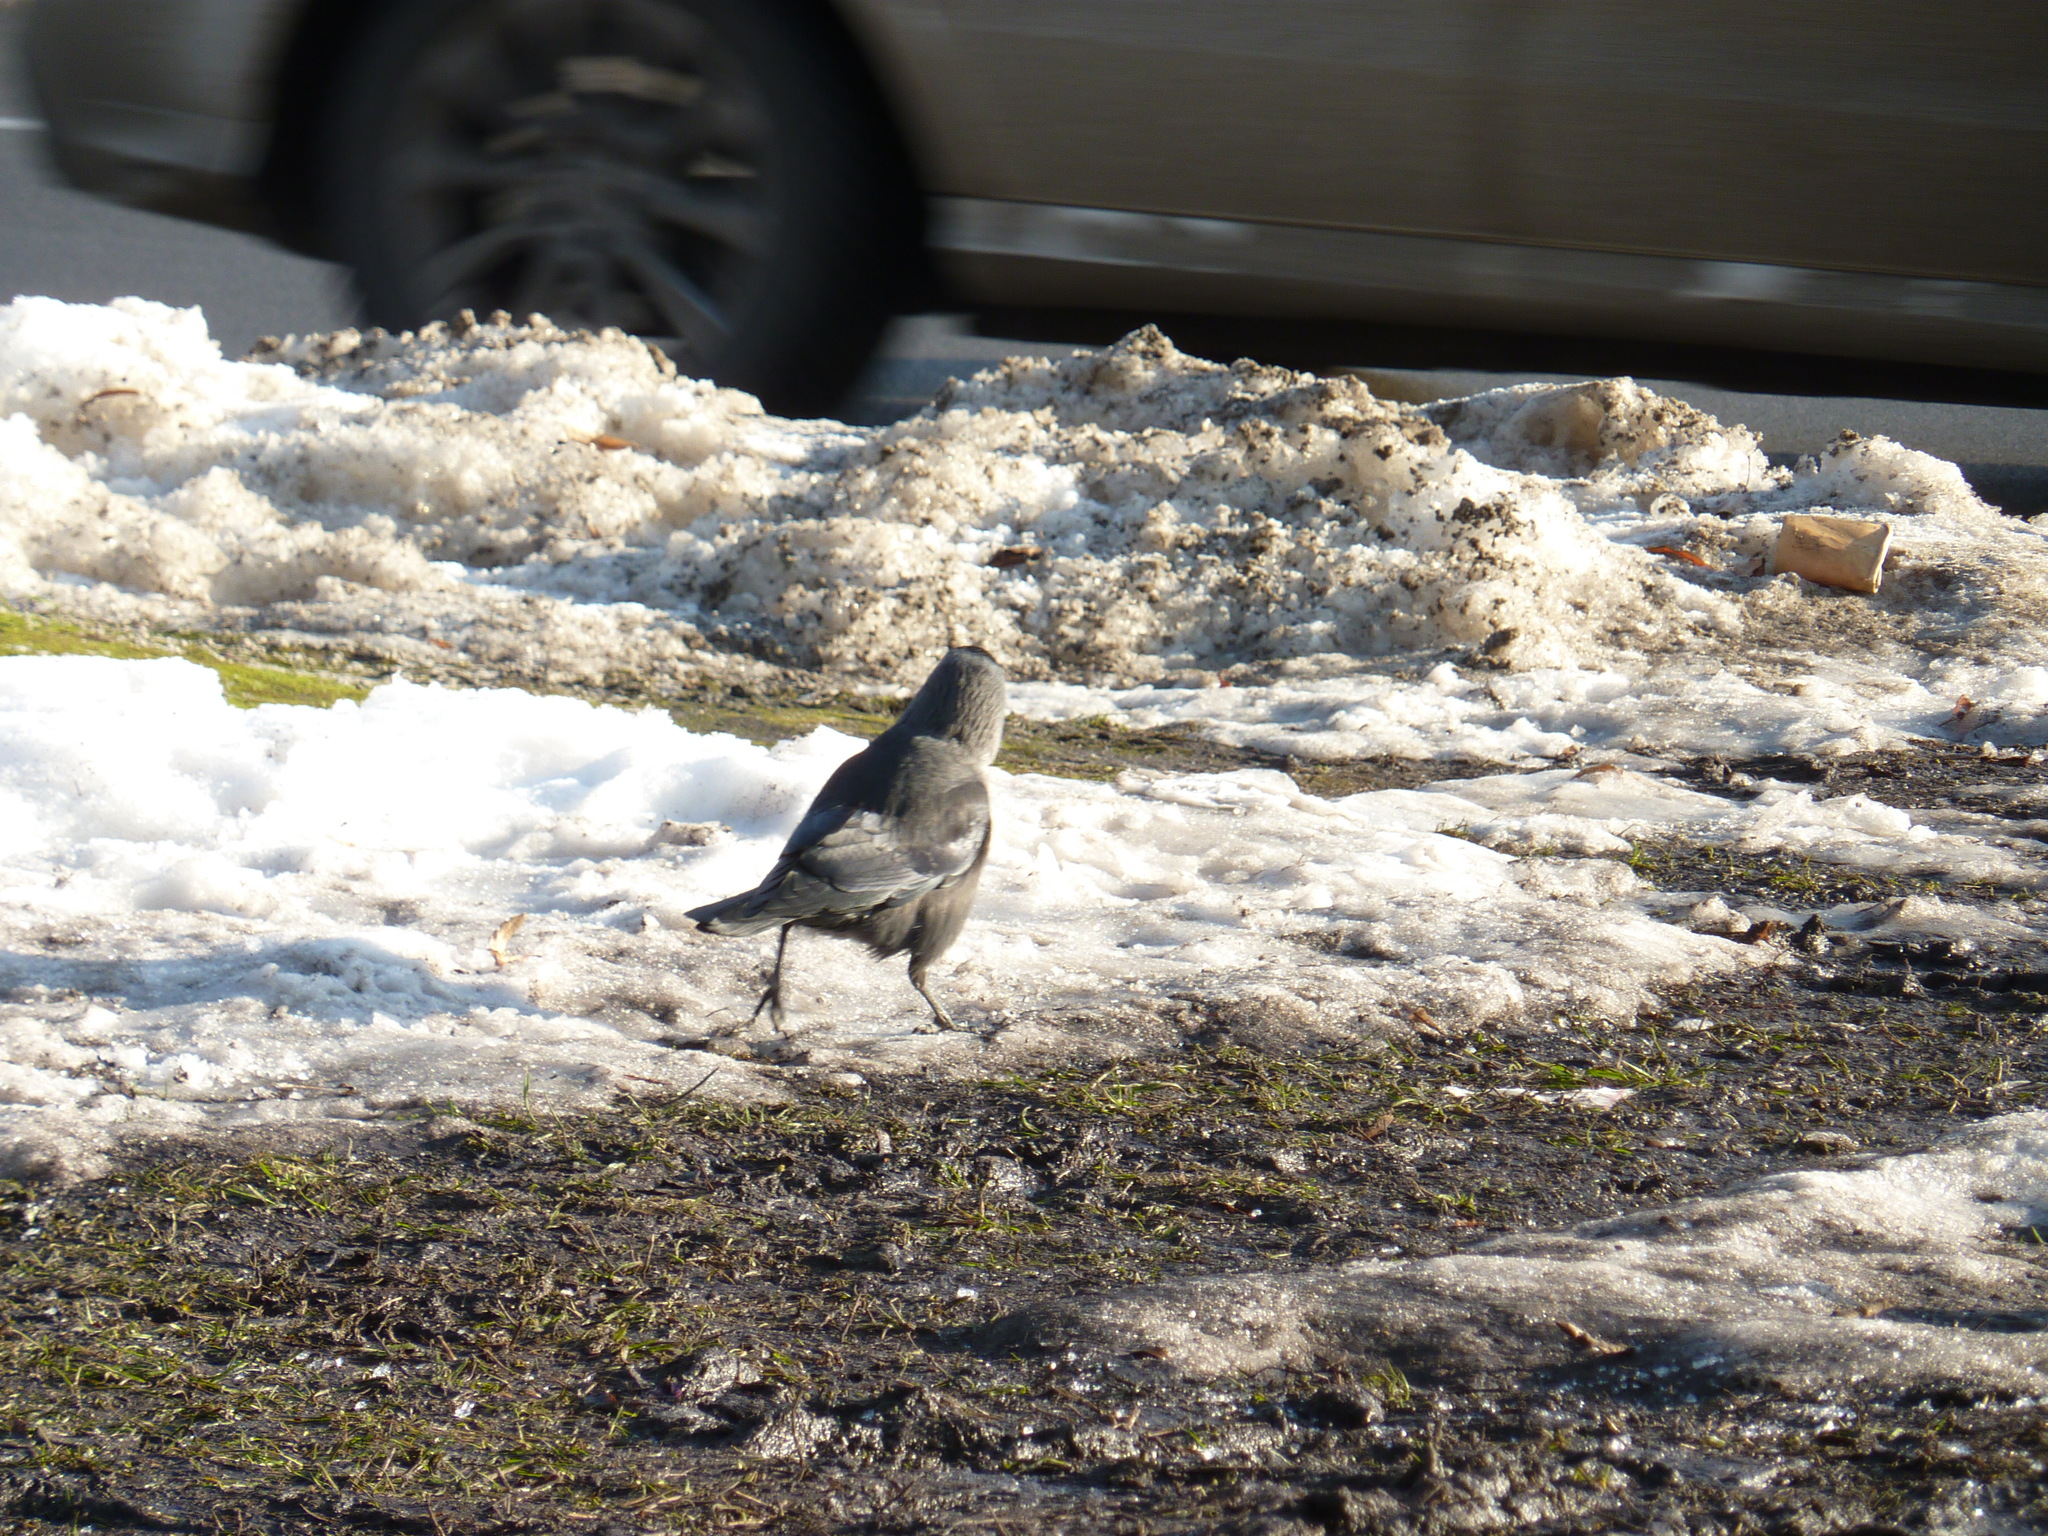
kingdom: Animalia
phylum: Chordata
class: Aves
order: Passeriformes
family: Corvidae
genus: Coloeus
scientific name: Coloeus monedula
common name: Western jackdaw
